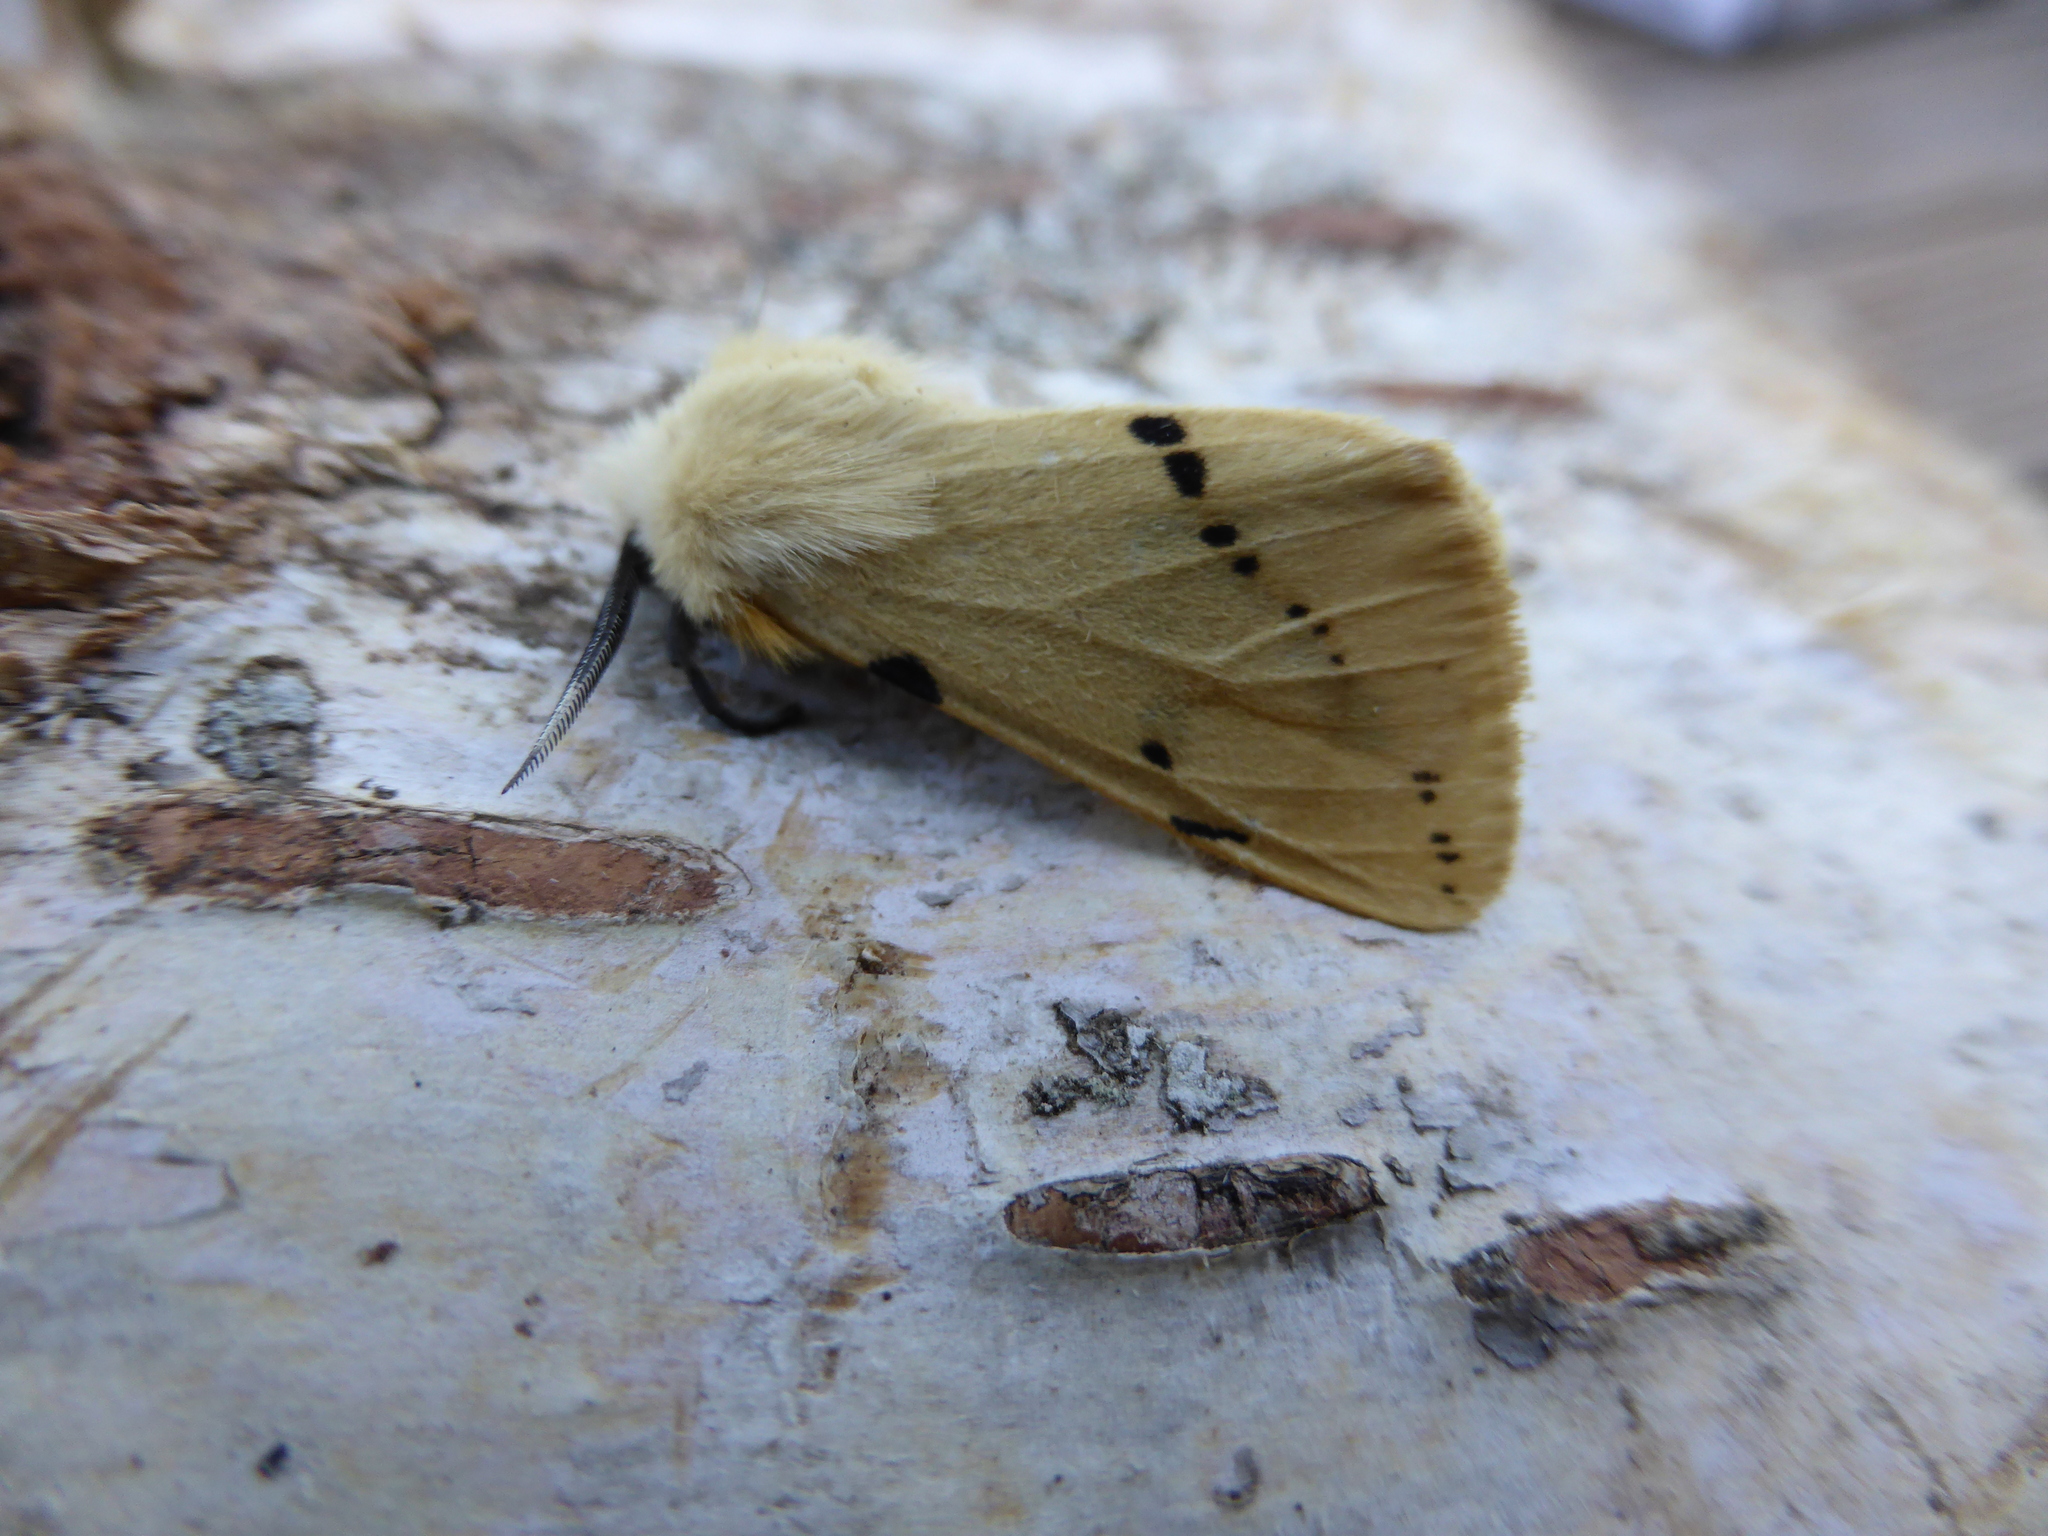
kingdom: Animalia
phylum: Arthropoda
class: Insecta
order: Lepidoptera
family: Erebidae
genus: Spilarctia
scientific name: Spilarctia lutea
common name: Buff ermine
